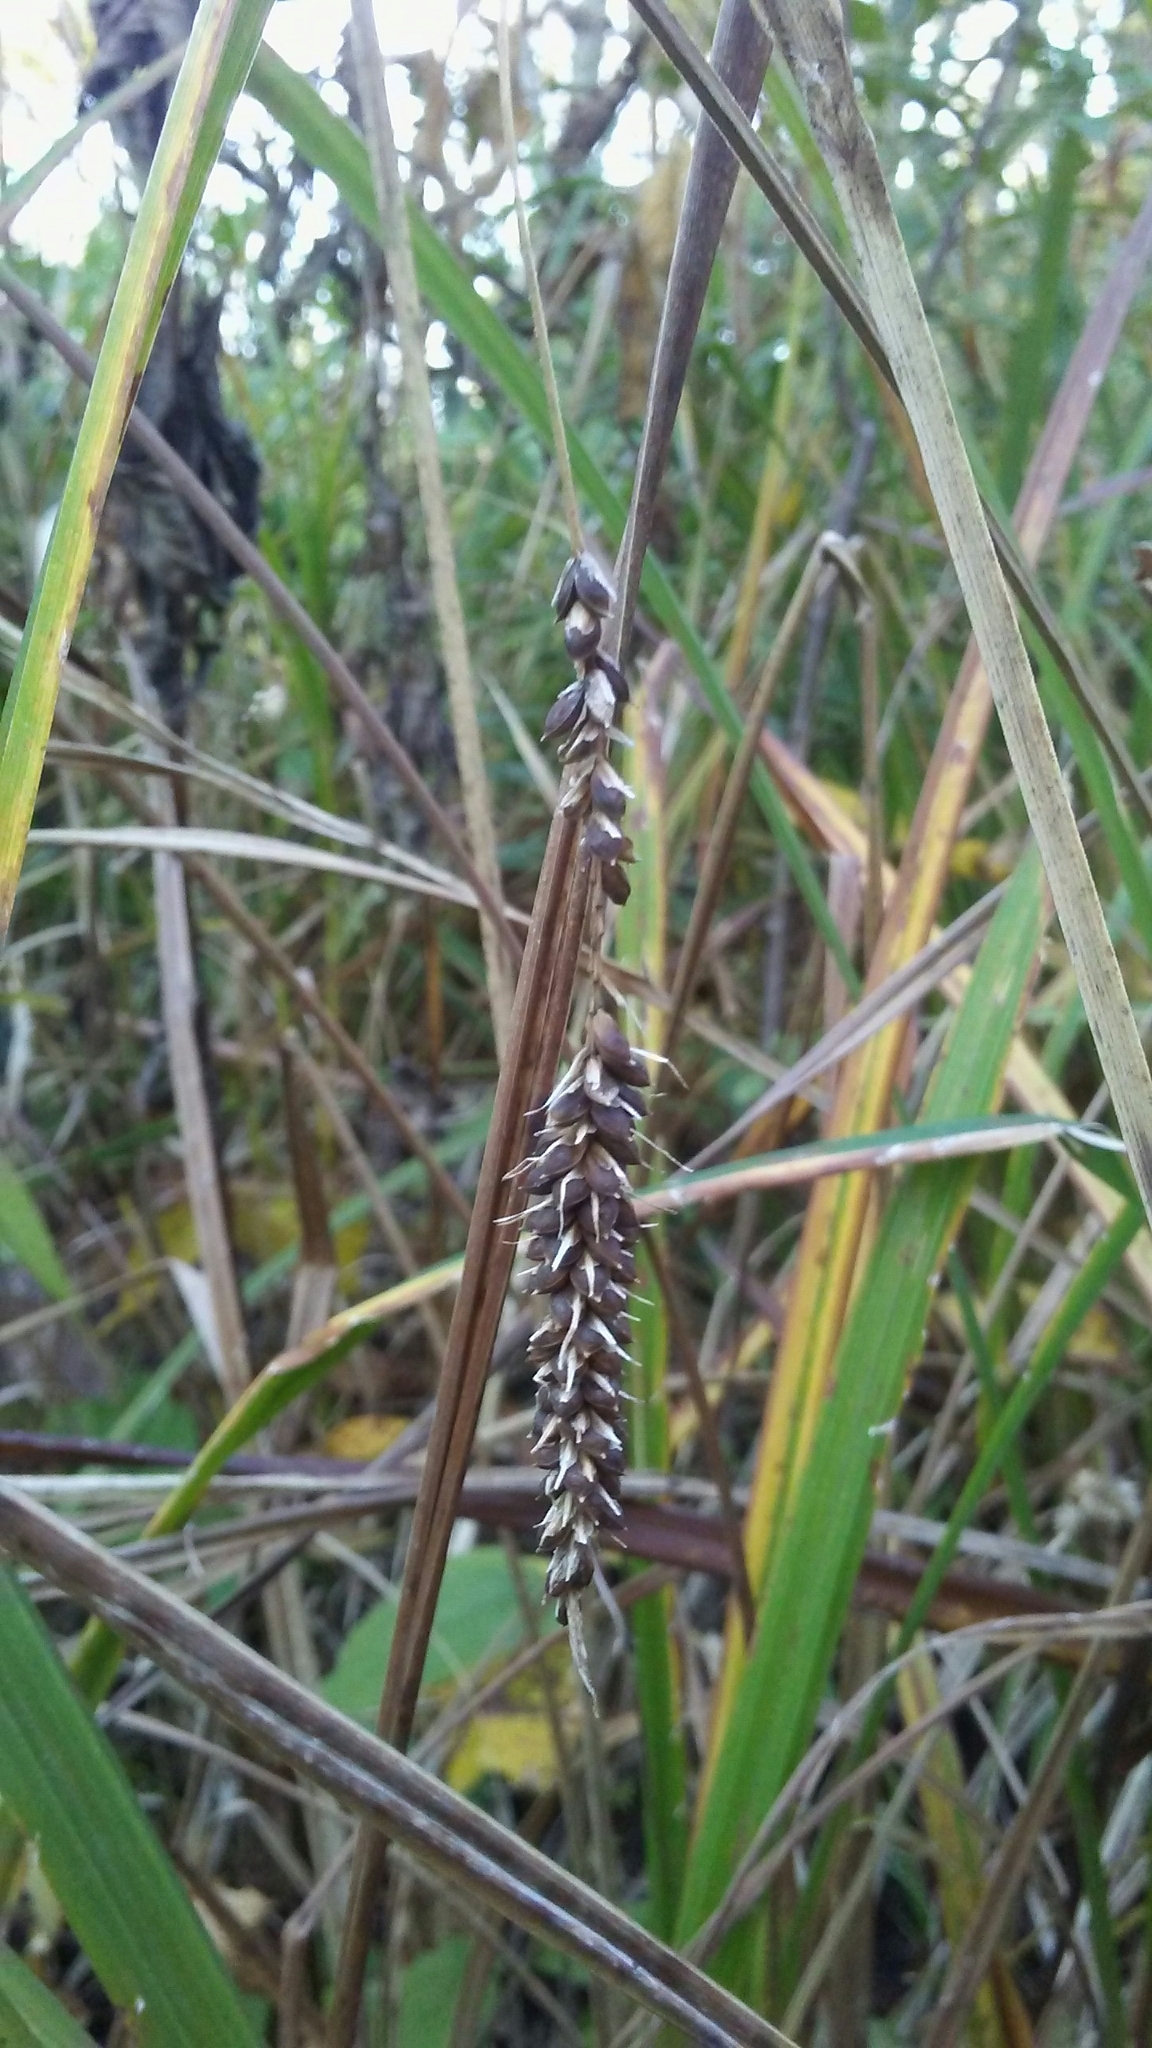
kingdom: Plantae
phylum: Tracheophyta
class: Liliopsida
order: Poales
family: Cyperaceae
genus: Carex
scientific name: Carex crinita
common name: Fringed sedge
